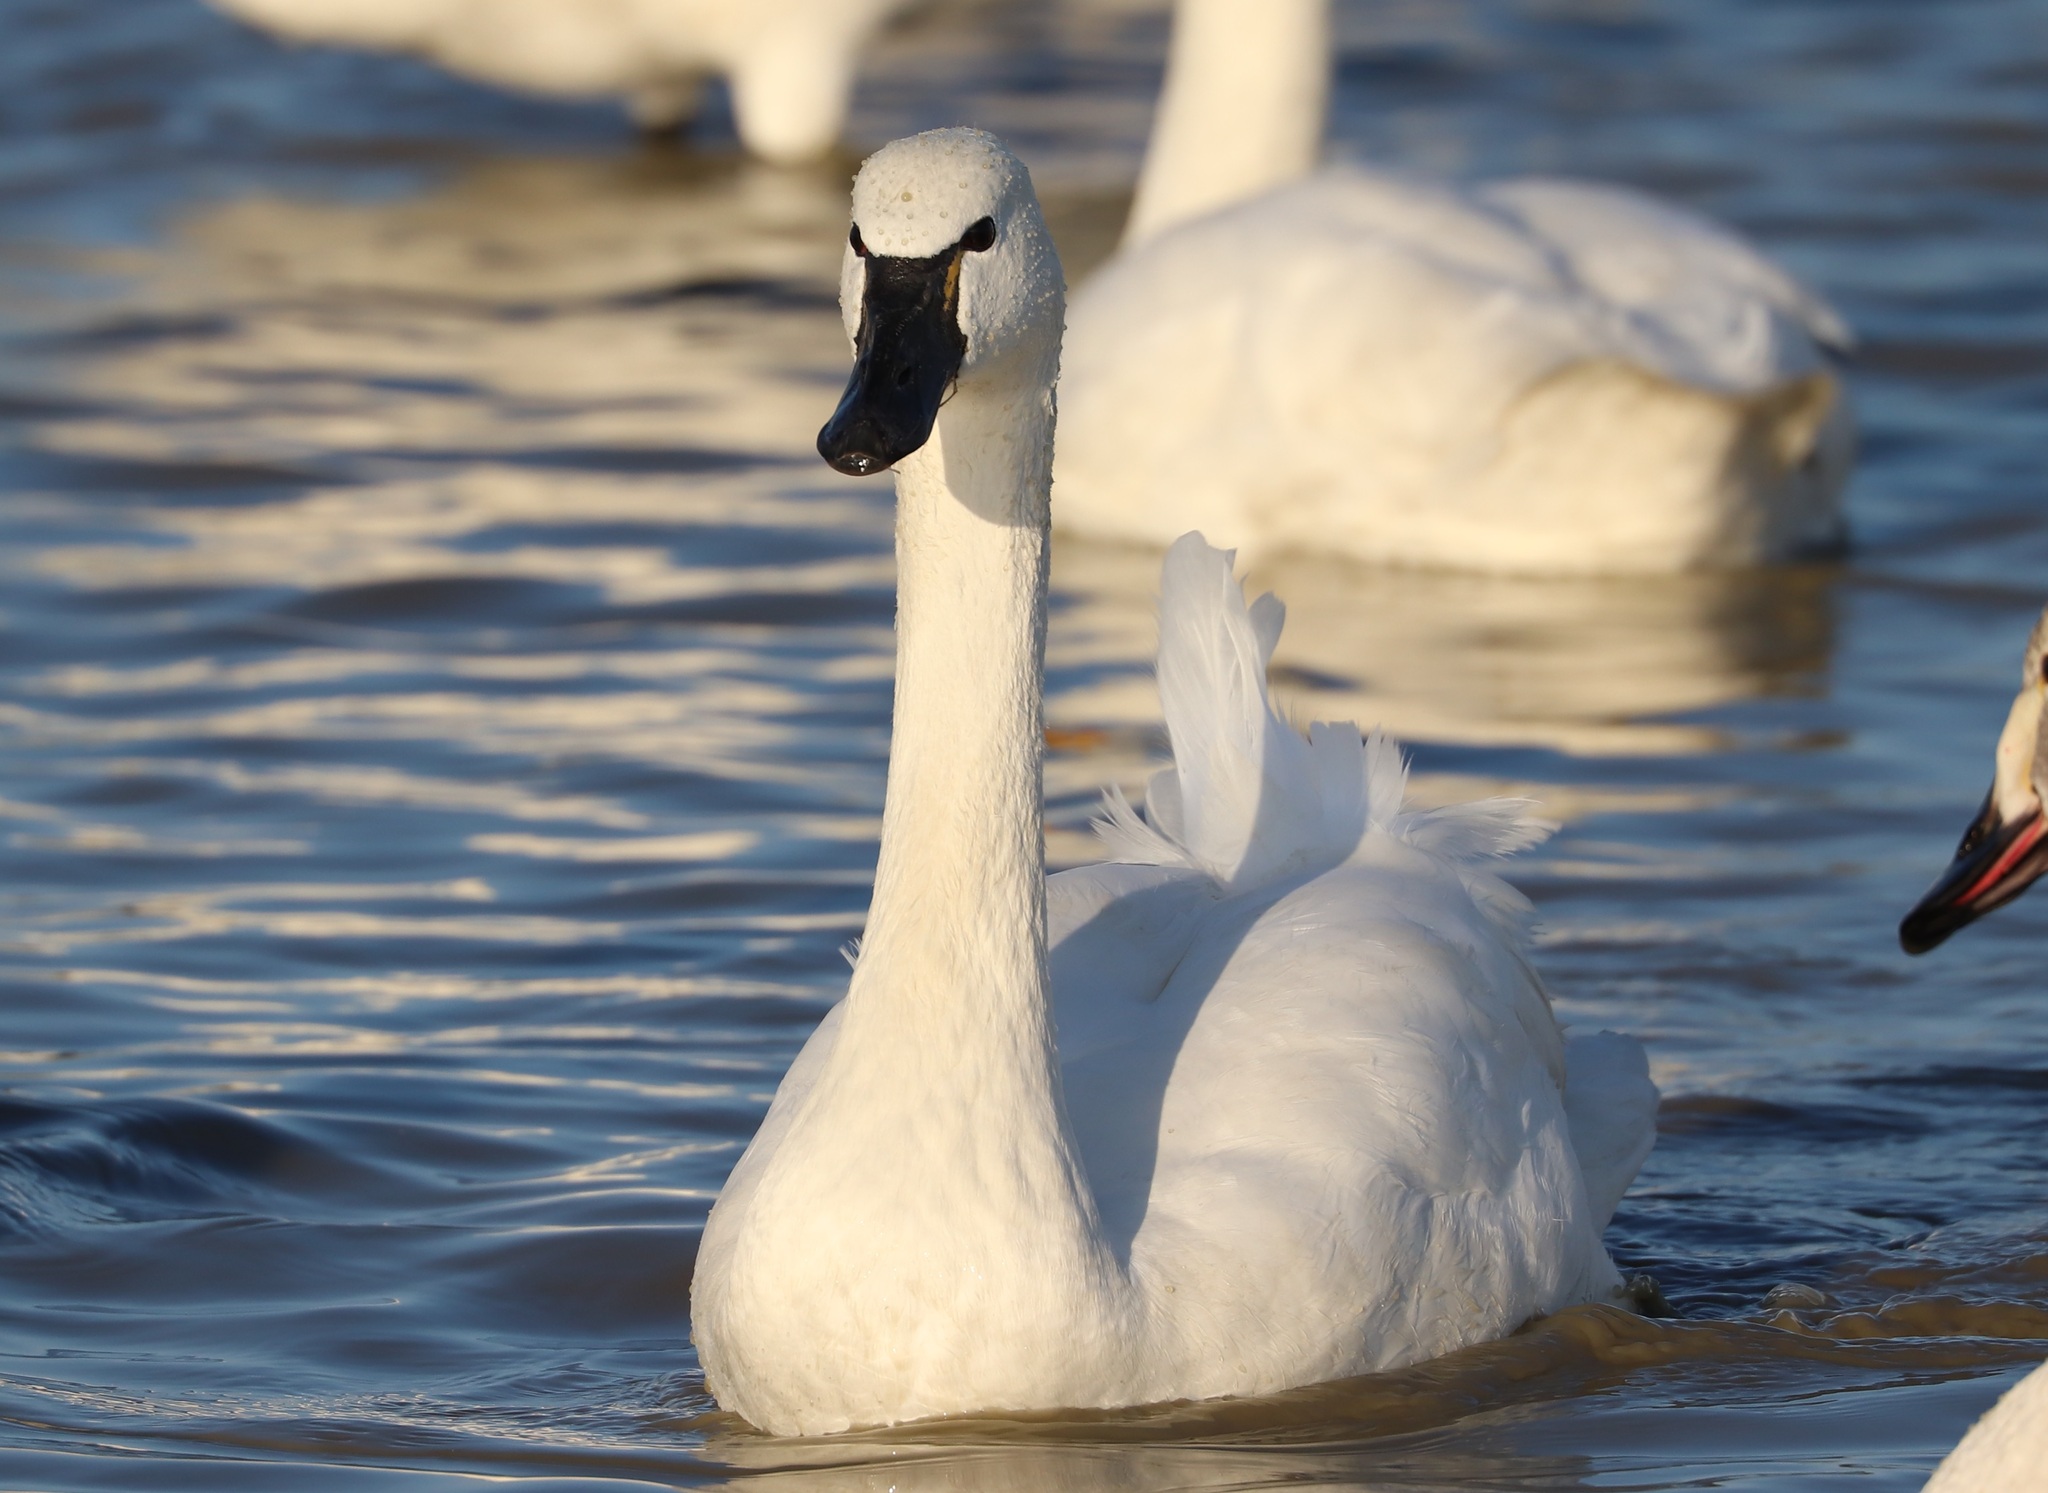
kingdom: Animalia
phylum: Chordata
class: Aves
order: Anseriformes
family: Anatidae
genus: Cygnus
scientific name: Cygnus columbianus
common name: Tundra swan
